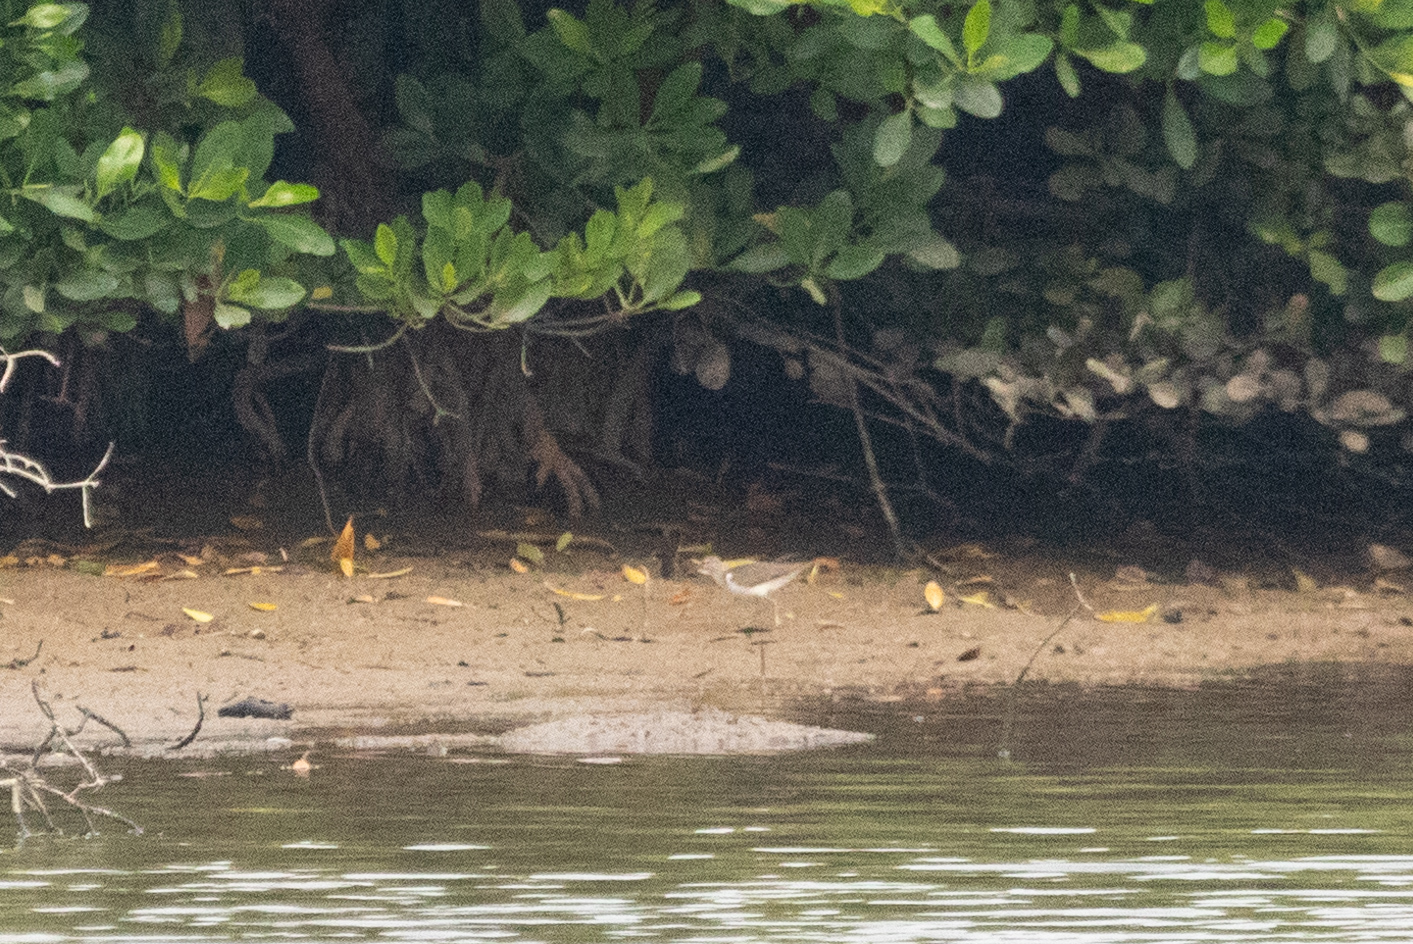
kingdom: Animalia
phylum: Chordata
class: Aves
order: Charadriiformes
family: Scolopacidae
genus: Actitis
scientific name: Actitis hypoleucos
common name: Common sandpiper
